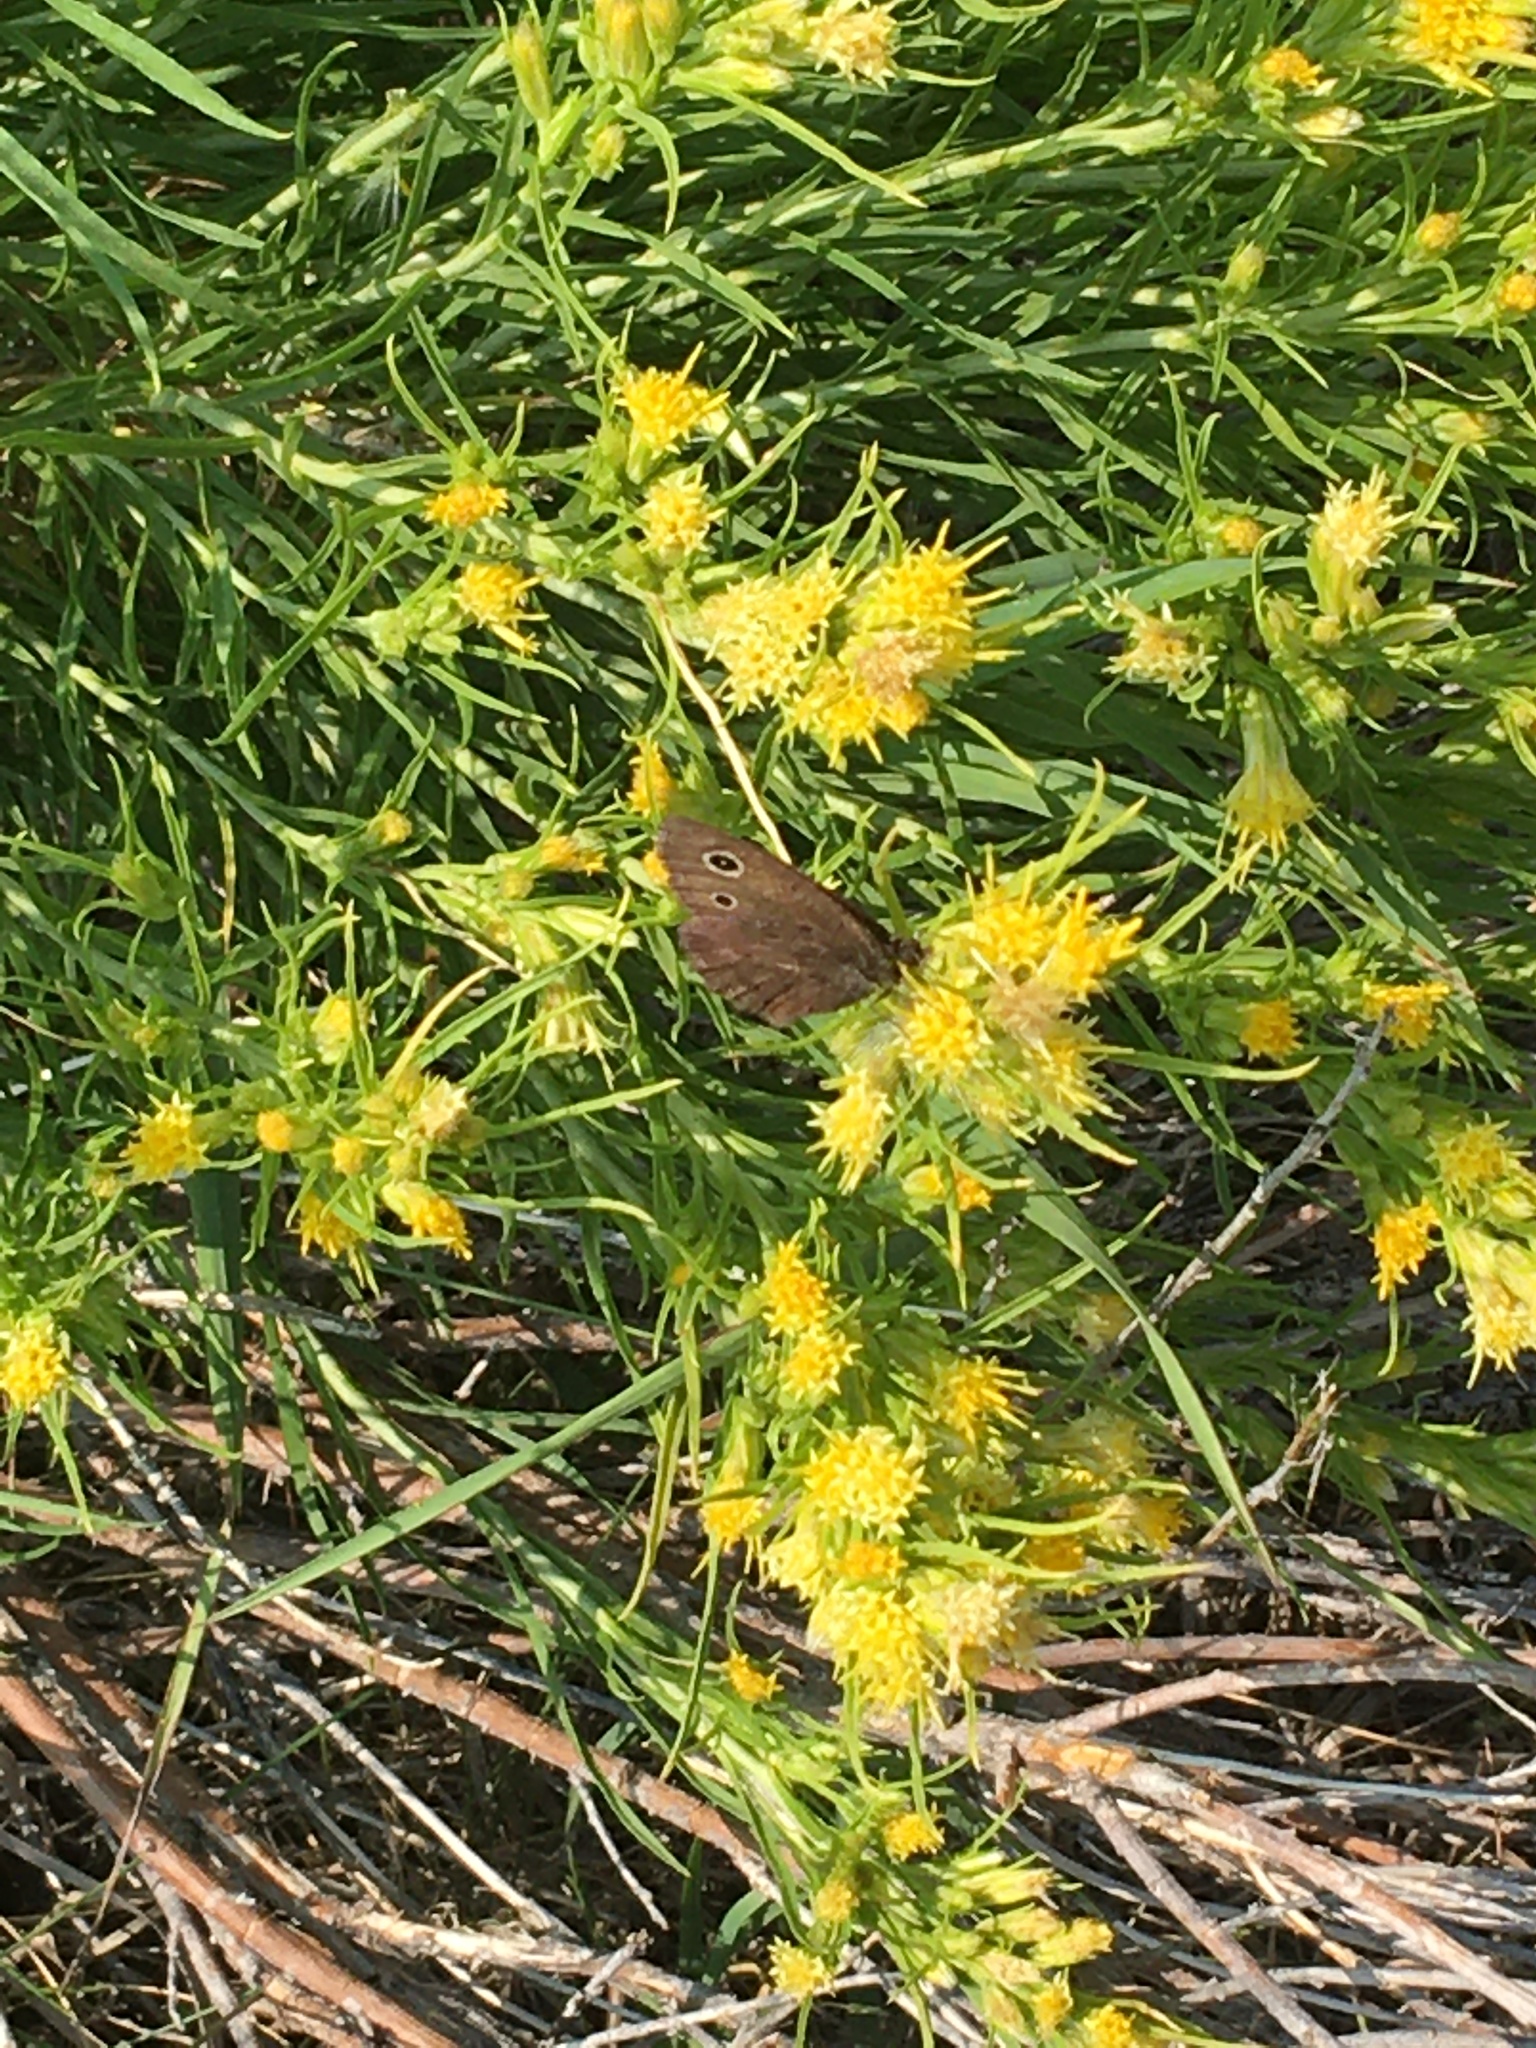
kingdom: Animalia
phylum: Arthropoda
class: Insecta
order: Lepidoptera
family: Nymphalidae
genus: Cercyonis
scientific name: Cercyonis oetus
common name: Small wood-nymph
